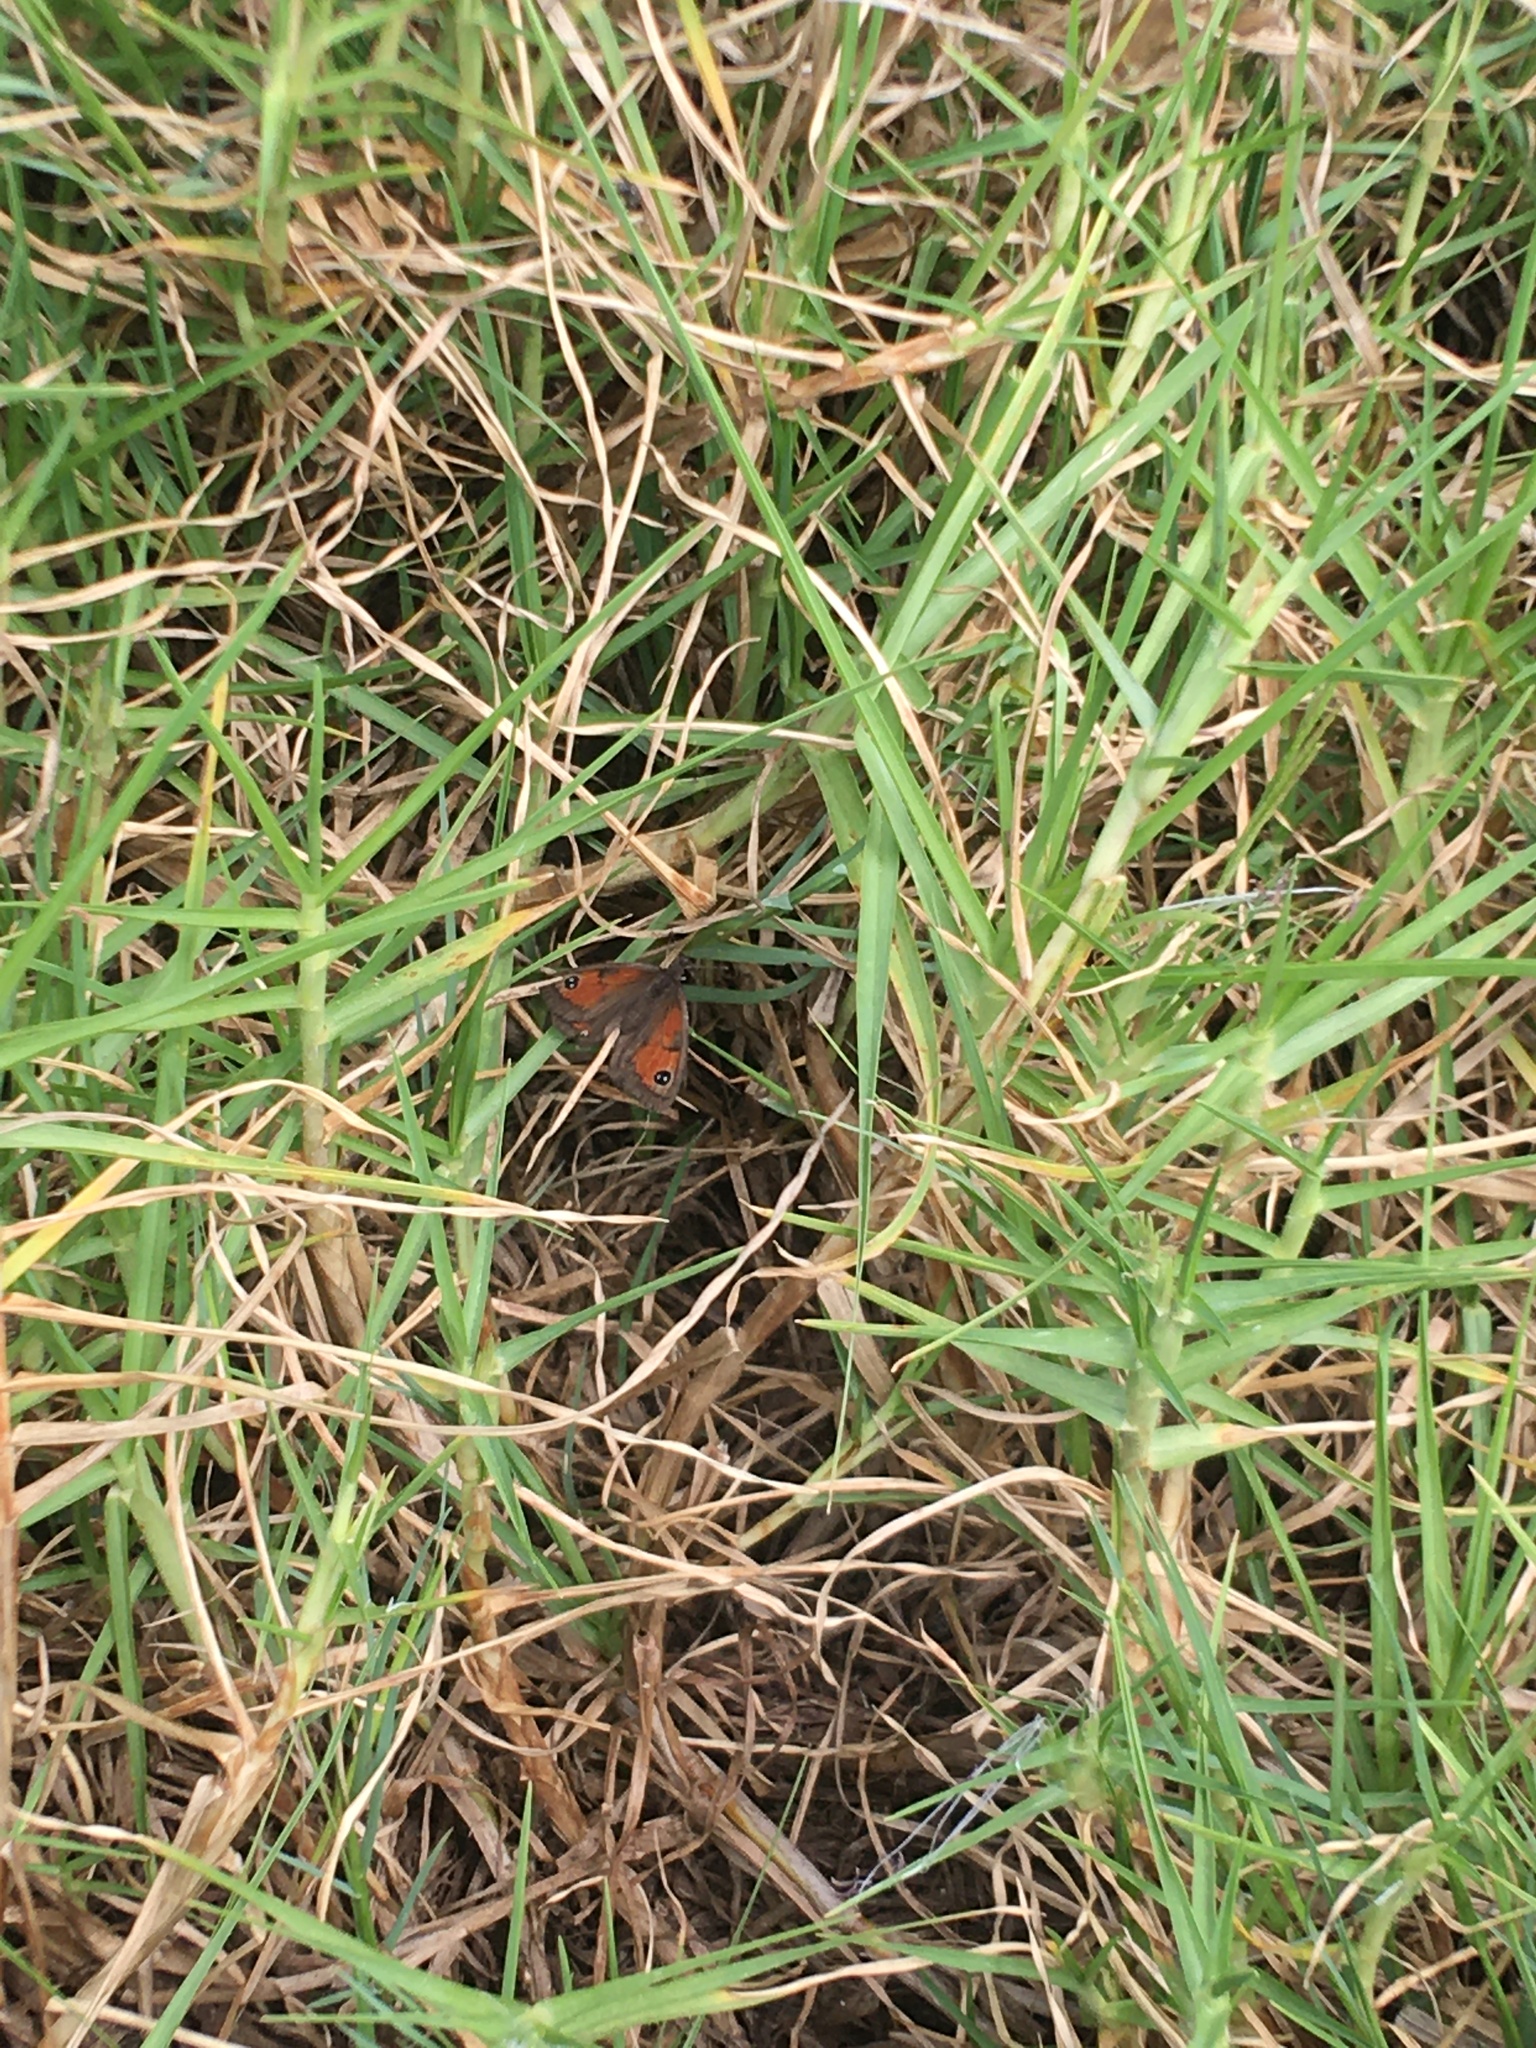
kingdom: Animalia
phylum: Arthropoda
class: Insecta
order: Lepidoptera
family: Nymphalidae
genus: Pseudonympha
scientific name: Pseudonympha magus
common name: Silver-bottom brown
